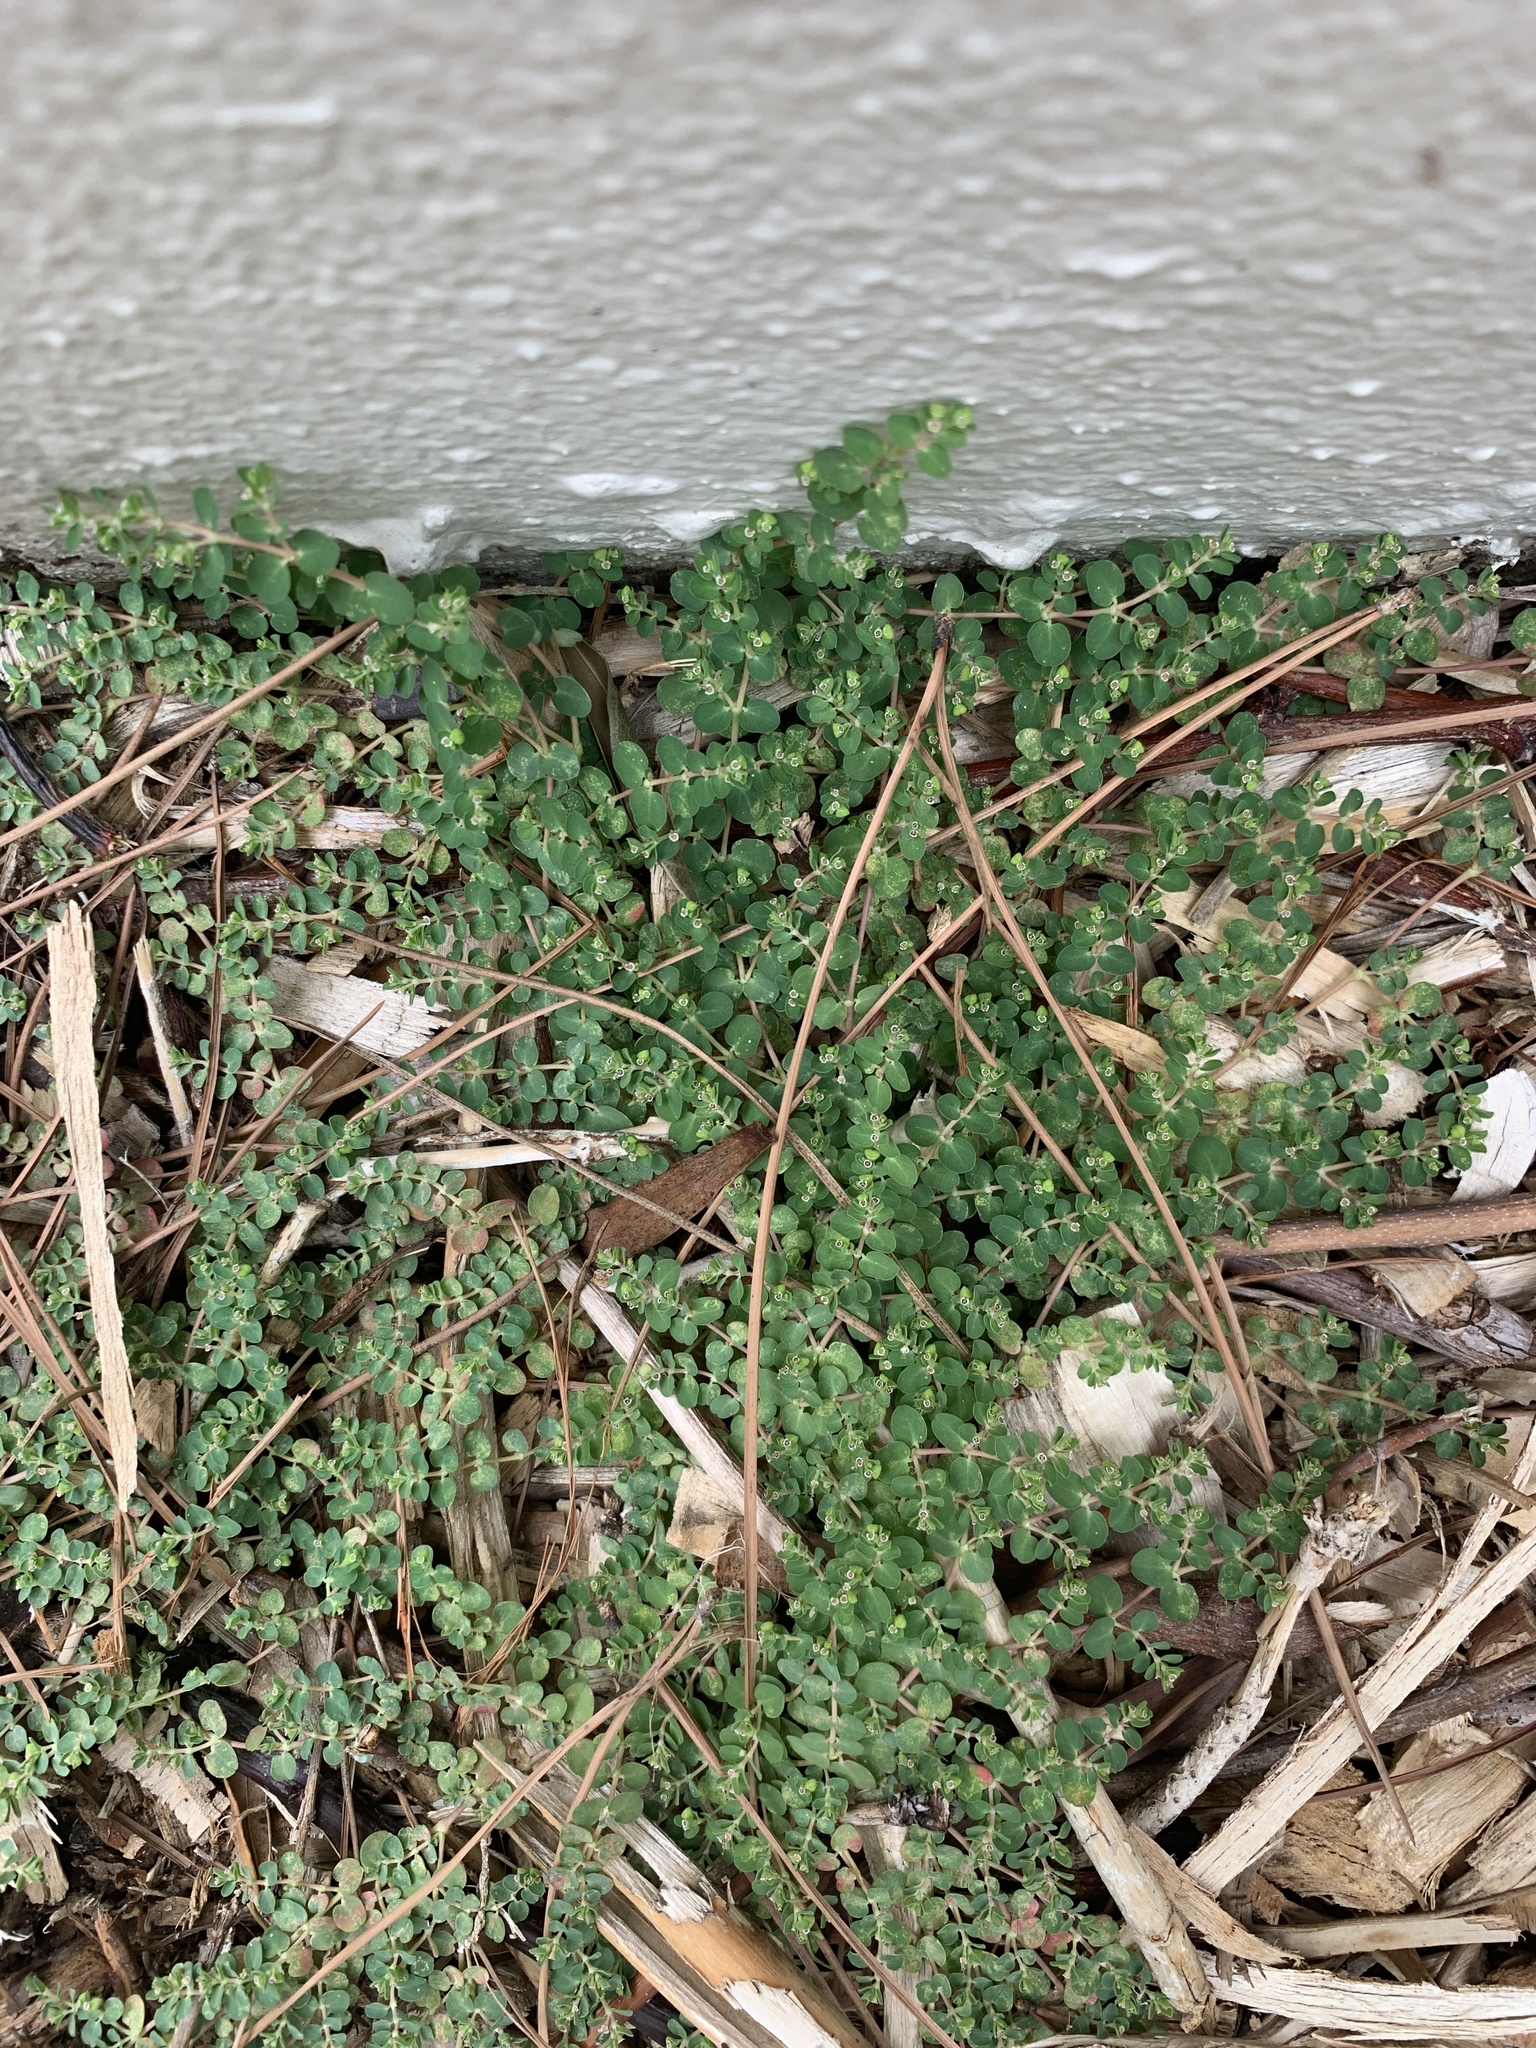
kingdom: Plantae
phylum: Tracheophyta
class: Magnoliopsida
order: Malpighiales
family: Euphorbiaceae
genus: Euphorbia
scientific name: Euphorbia serpens
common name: Matted sandmat
